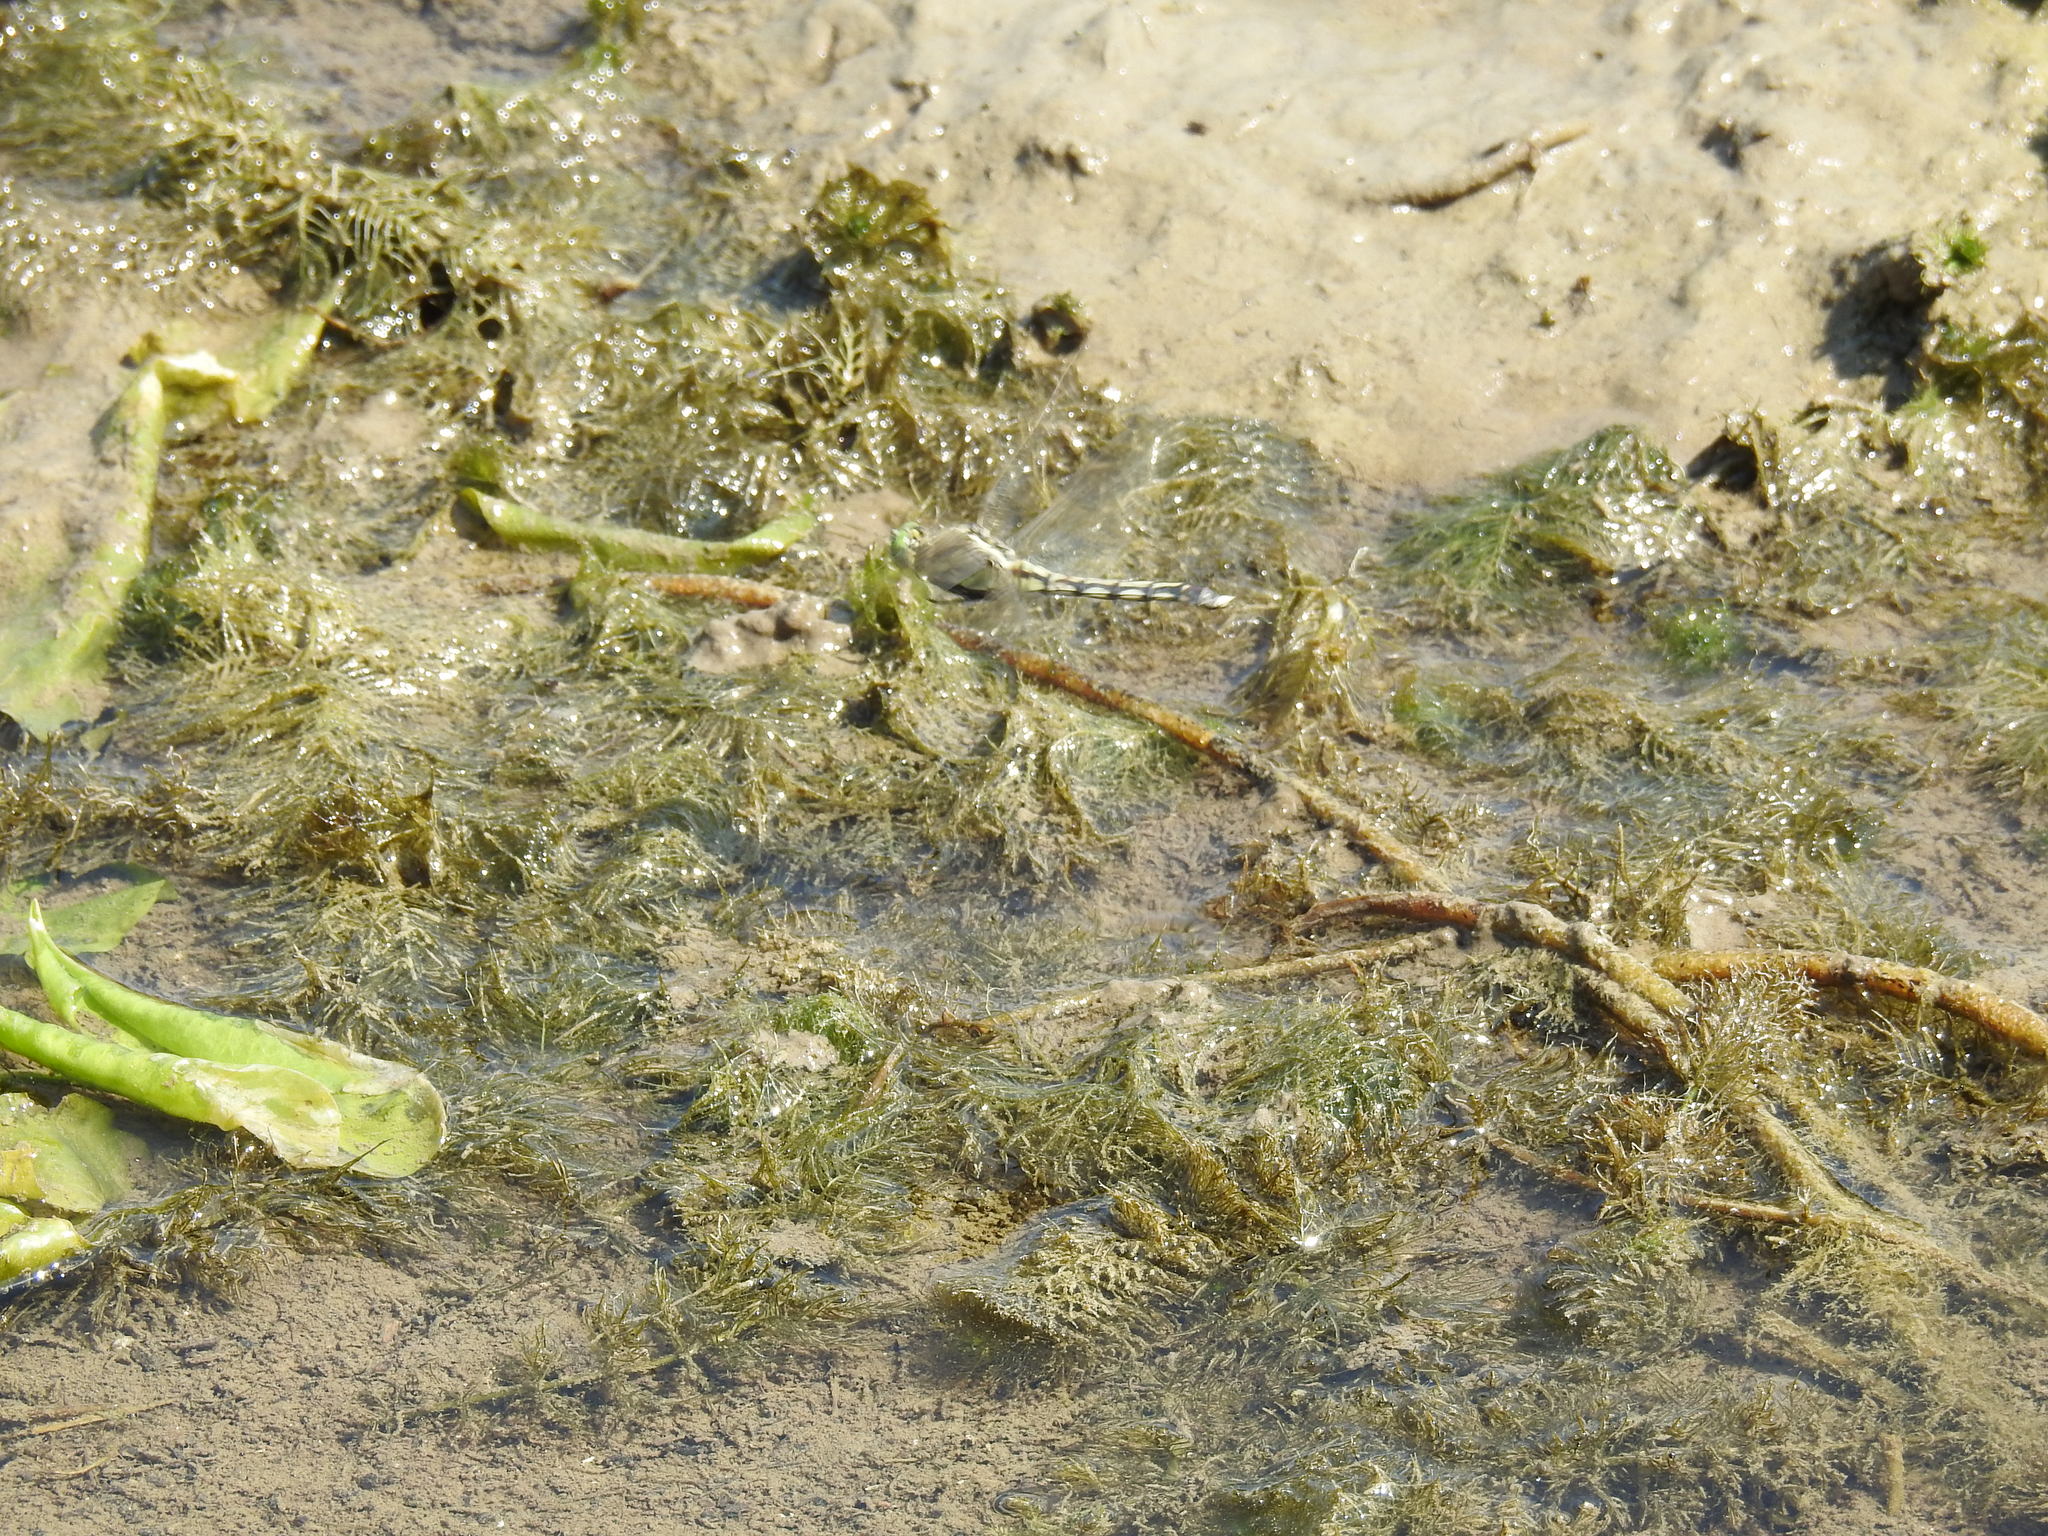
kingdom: Animalia
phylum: Arthropoda
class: Insecta
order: Odonata
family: Libellulidae
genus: Orthetrum
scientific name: Orthetrum albistylum
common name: White-tailed skimmer
